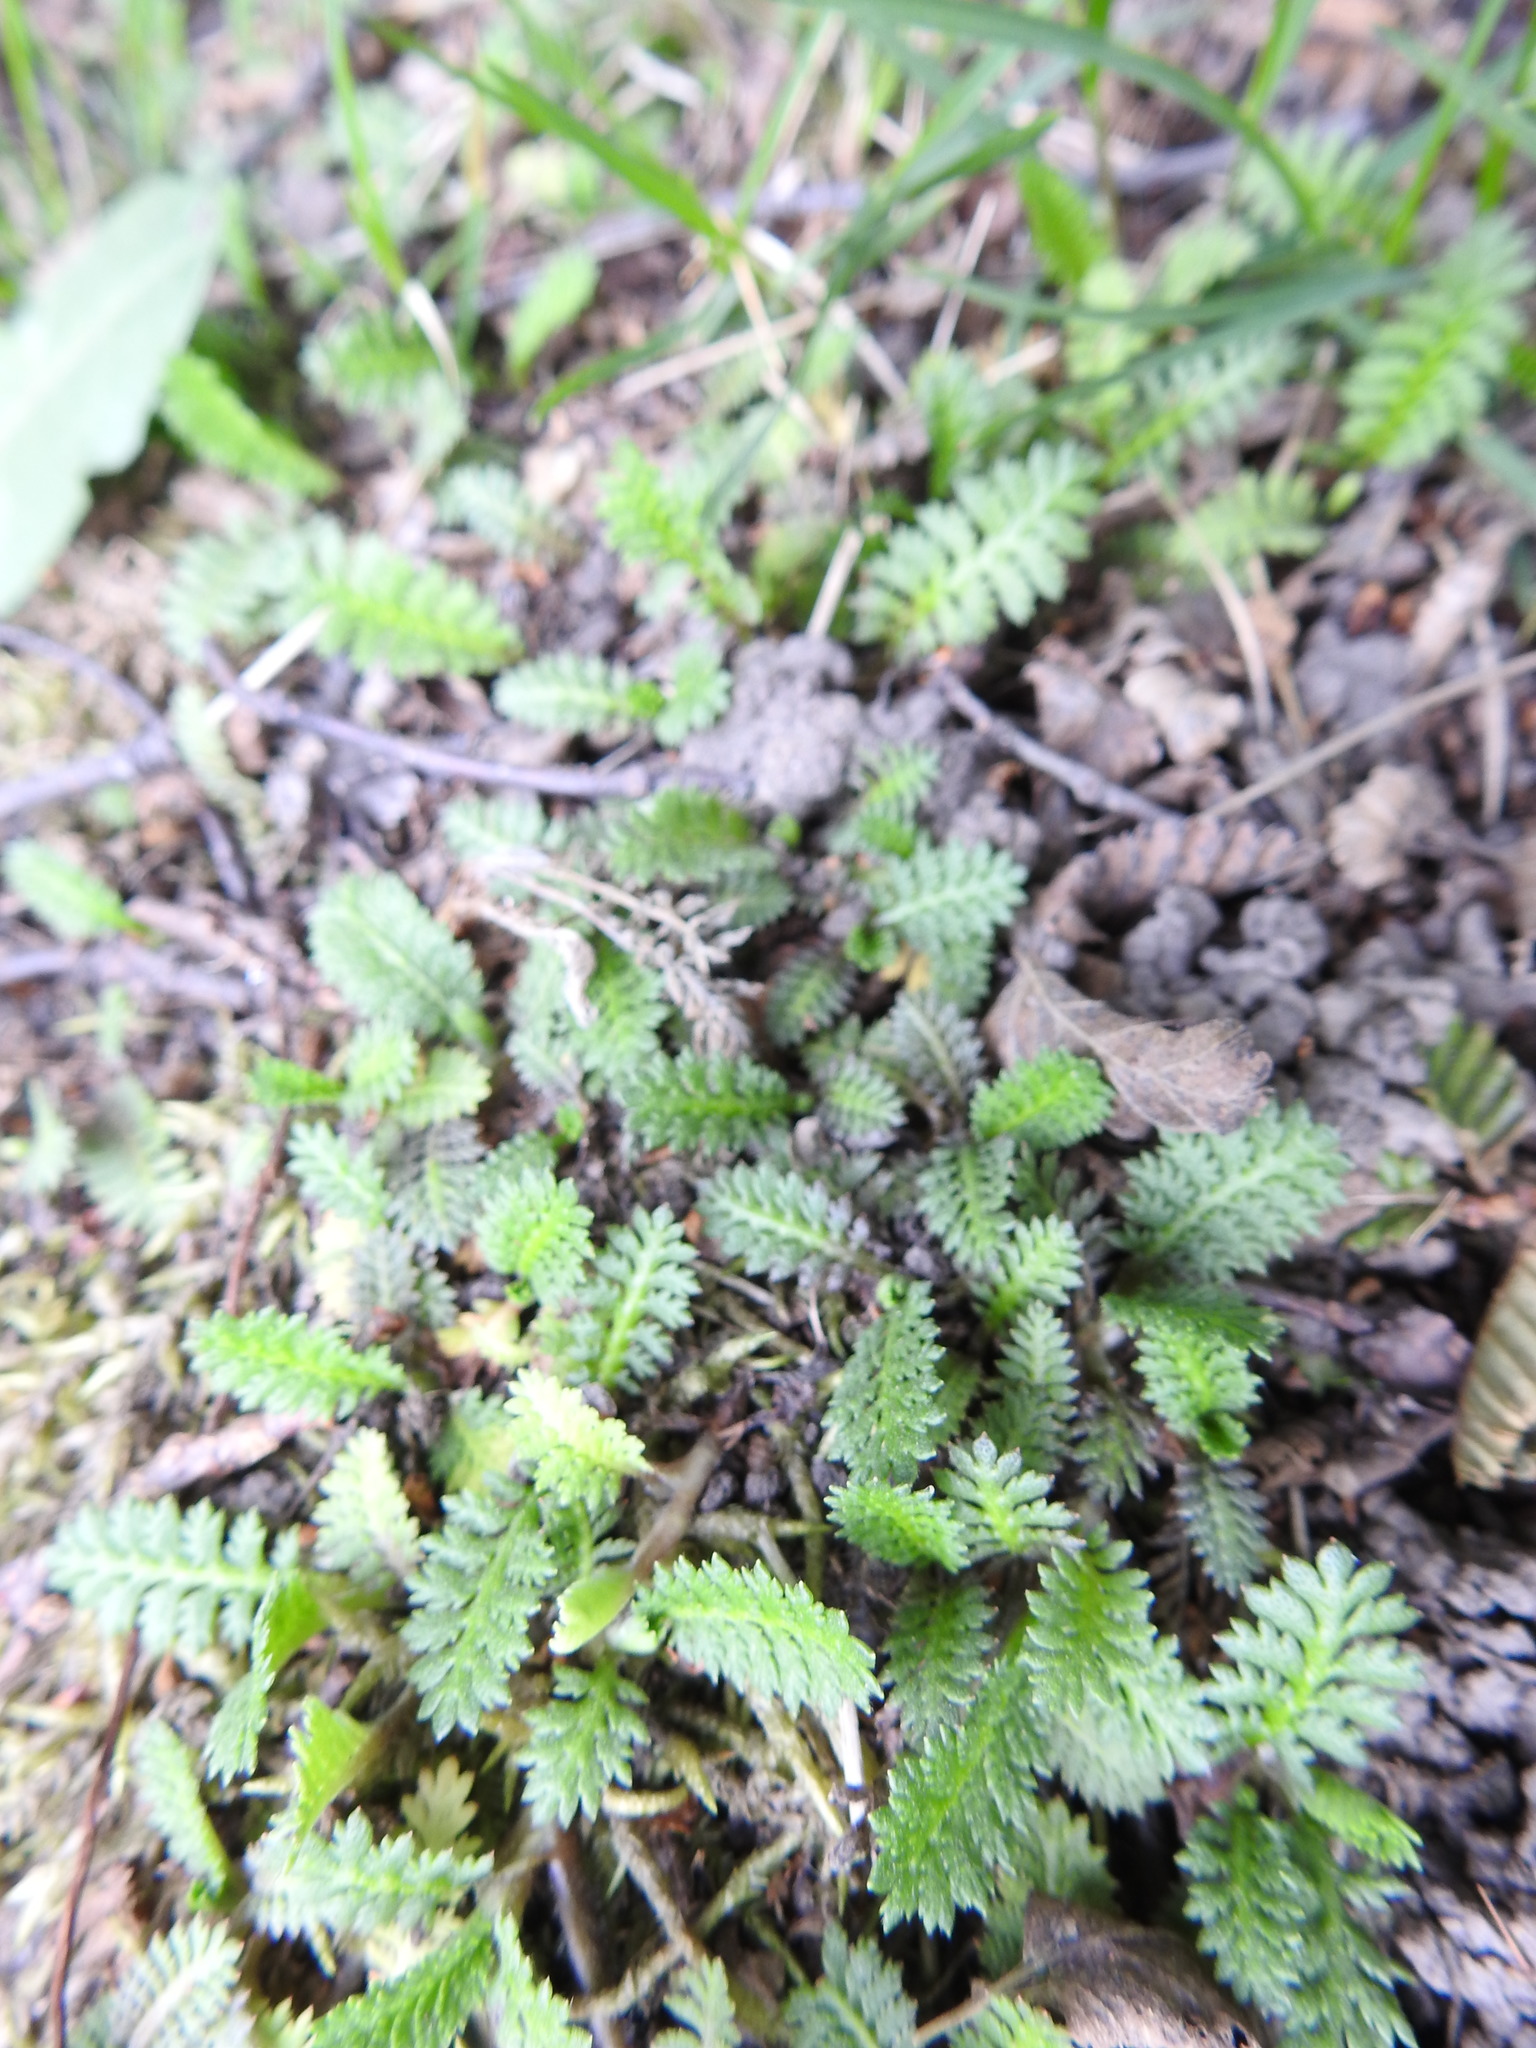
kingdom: Plantae
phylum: Tracheophyta
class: Magnoliopsida
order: Asterales
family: Asteraceae
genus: Leptinella
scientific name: Leptinella scariosa
